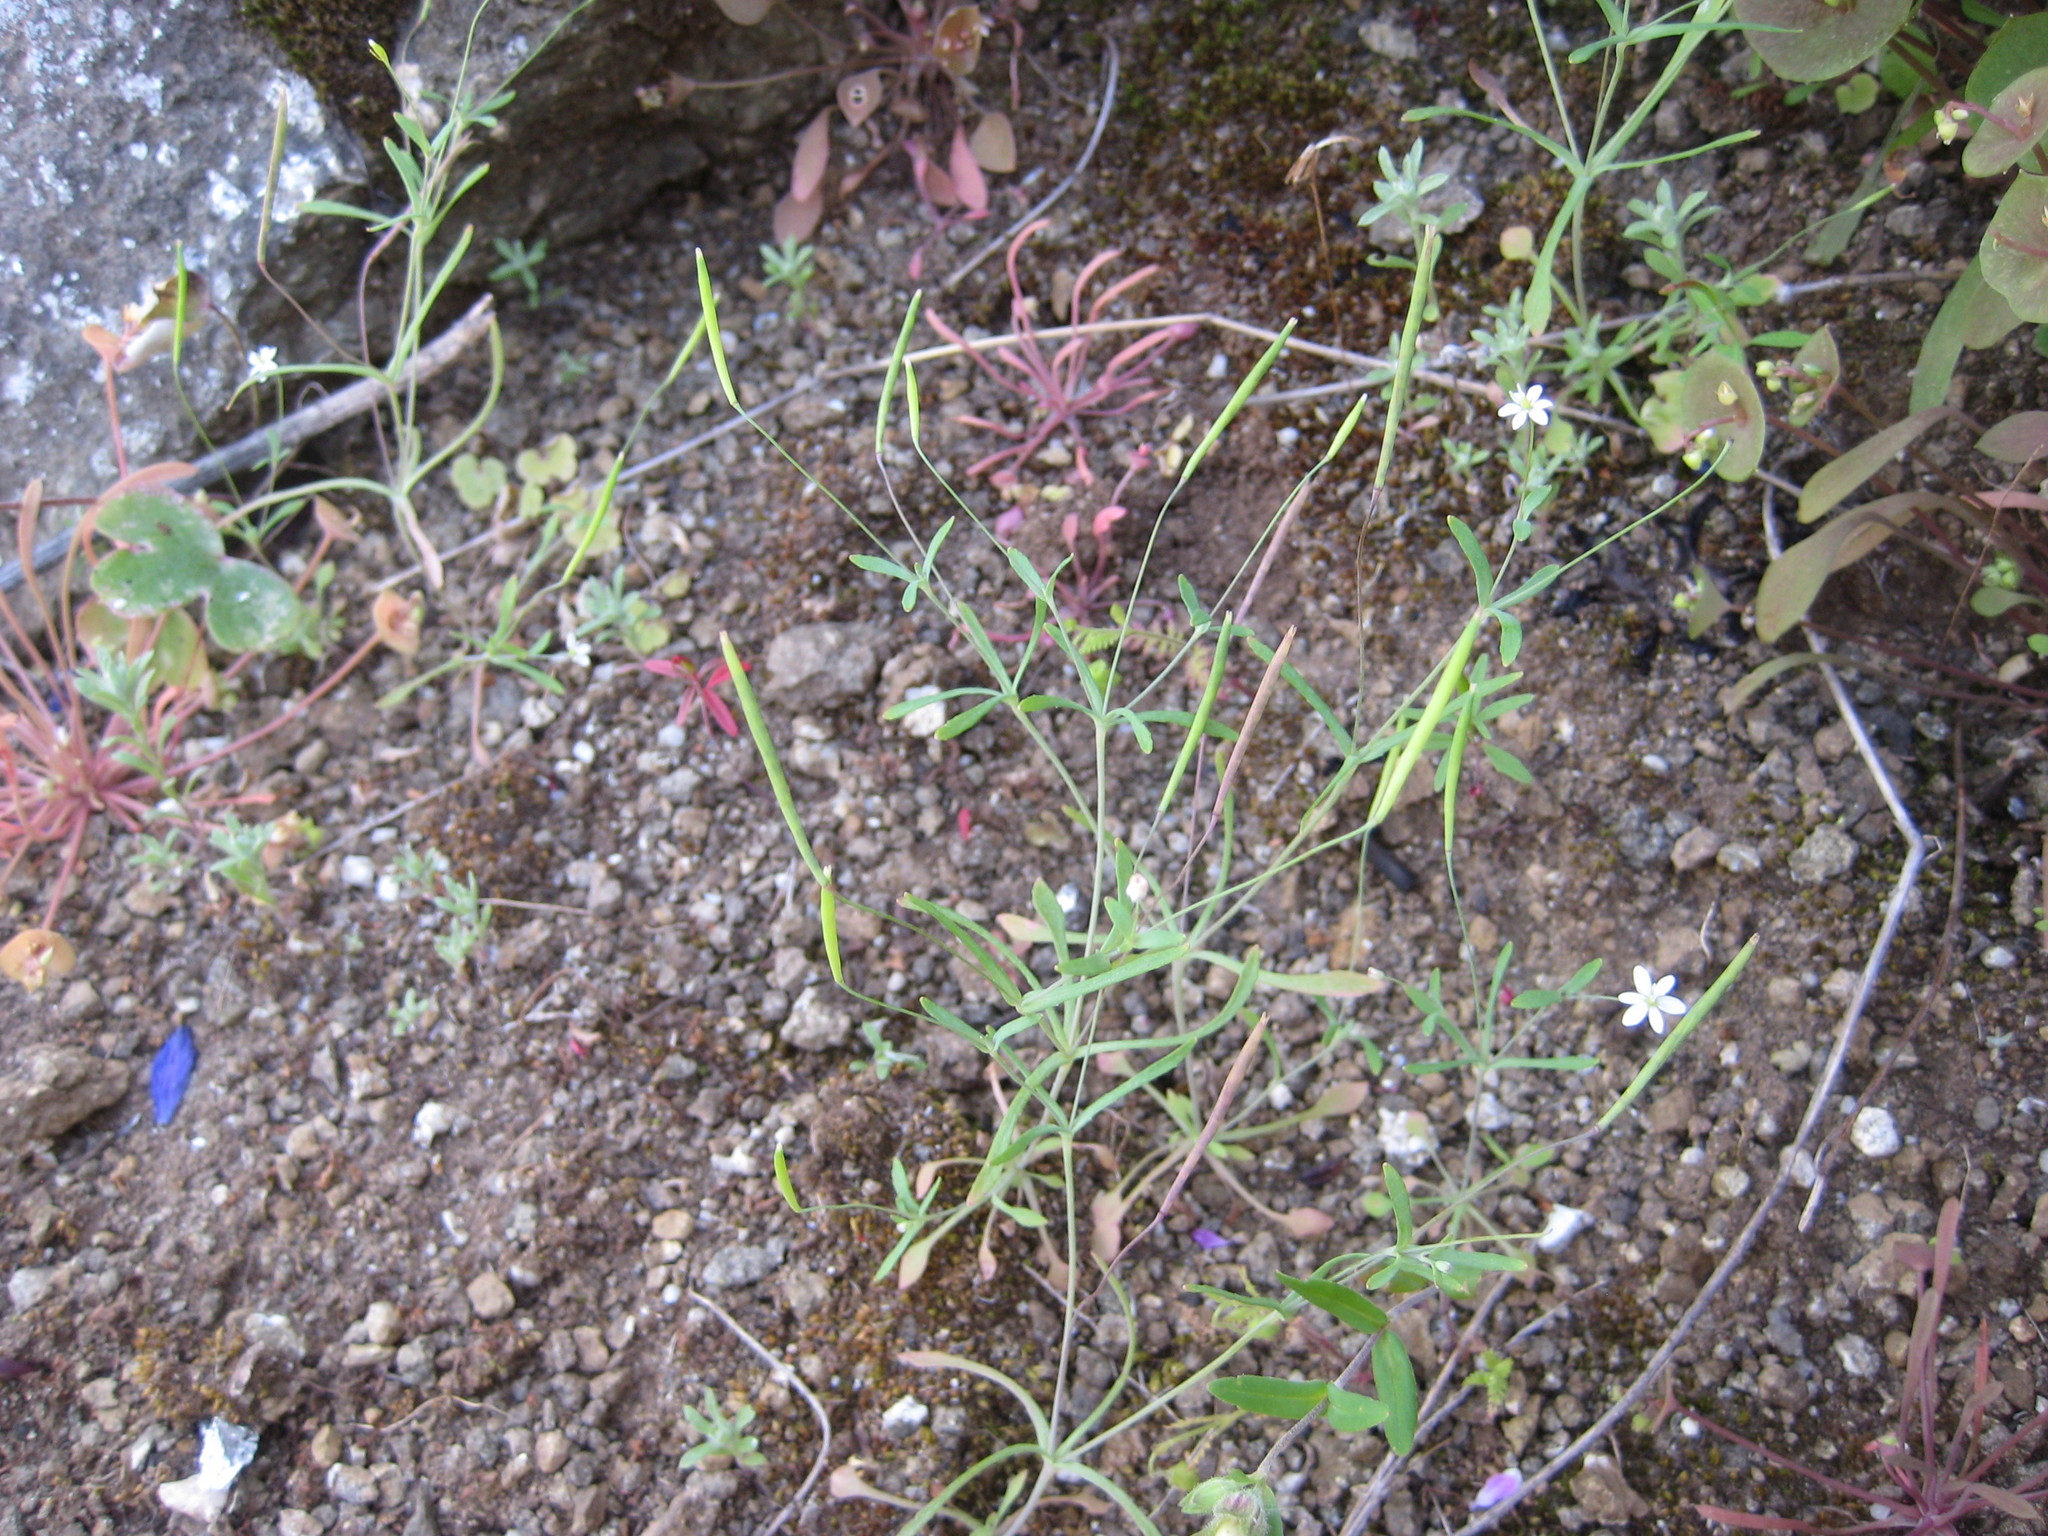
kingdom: Plantae
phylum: Tracheophyta
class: Magnoliopsida
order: Ranunculales
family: Papaveraceae
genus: Meconella
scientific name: Meconella denticulata
